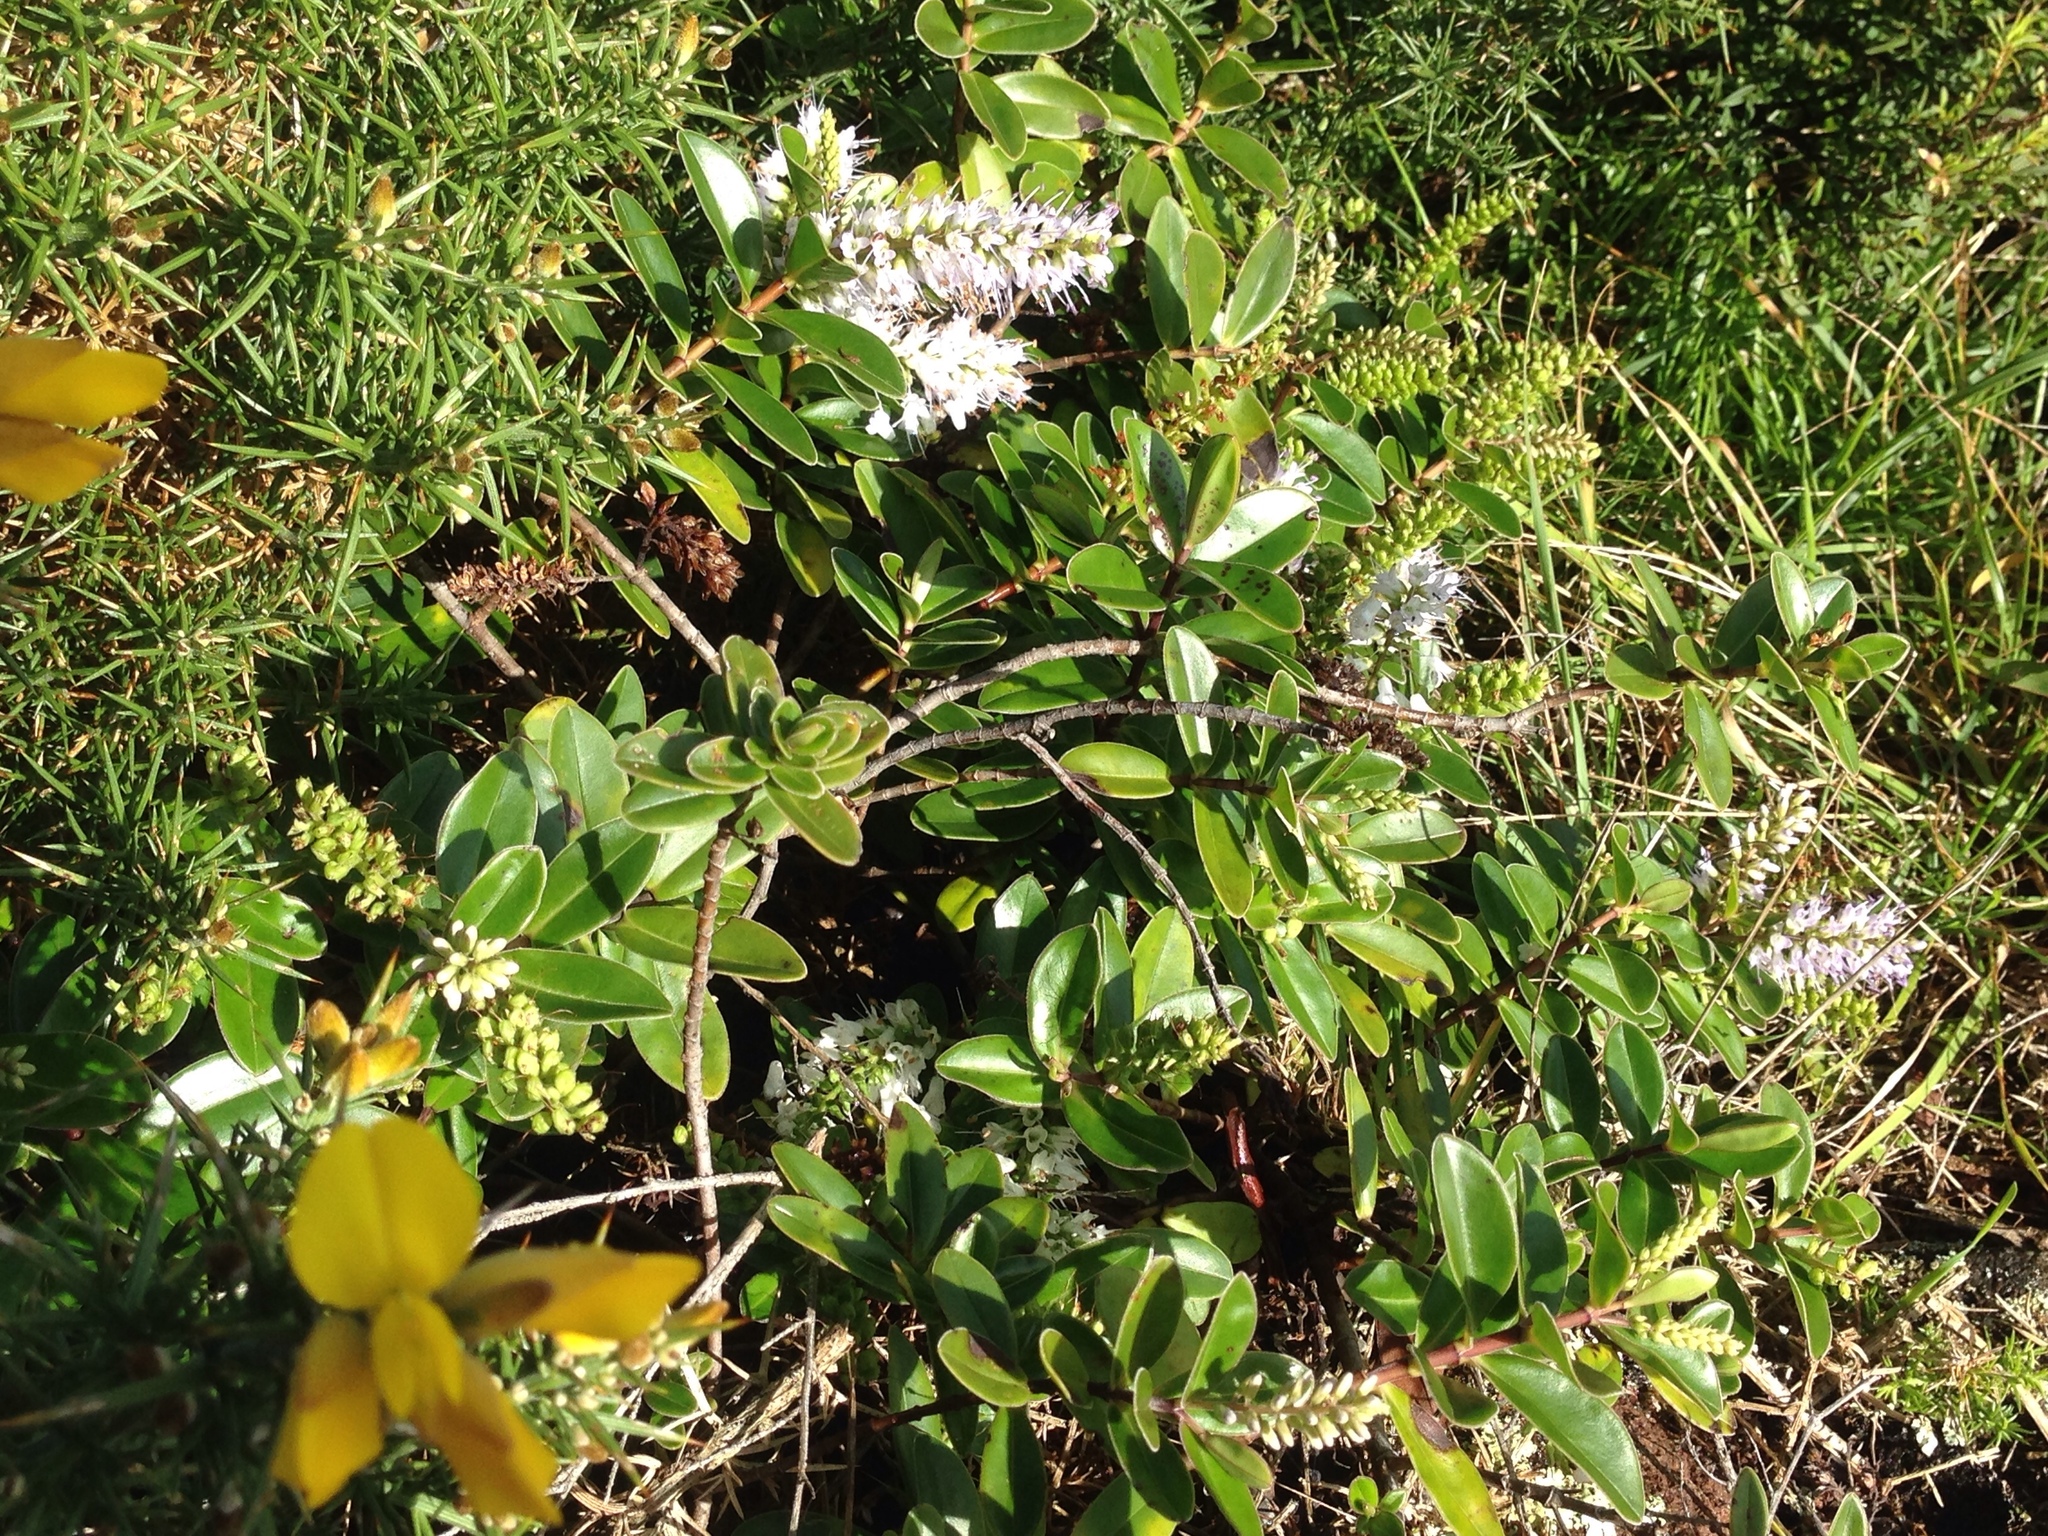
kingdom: Plantae
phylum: Tracheophyta
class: Magnoliopsida
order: Lamiales
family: Plantaginaceae
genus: Veronica
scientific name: Veronica obtusata
